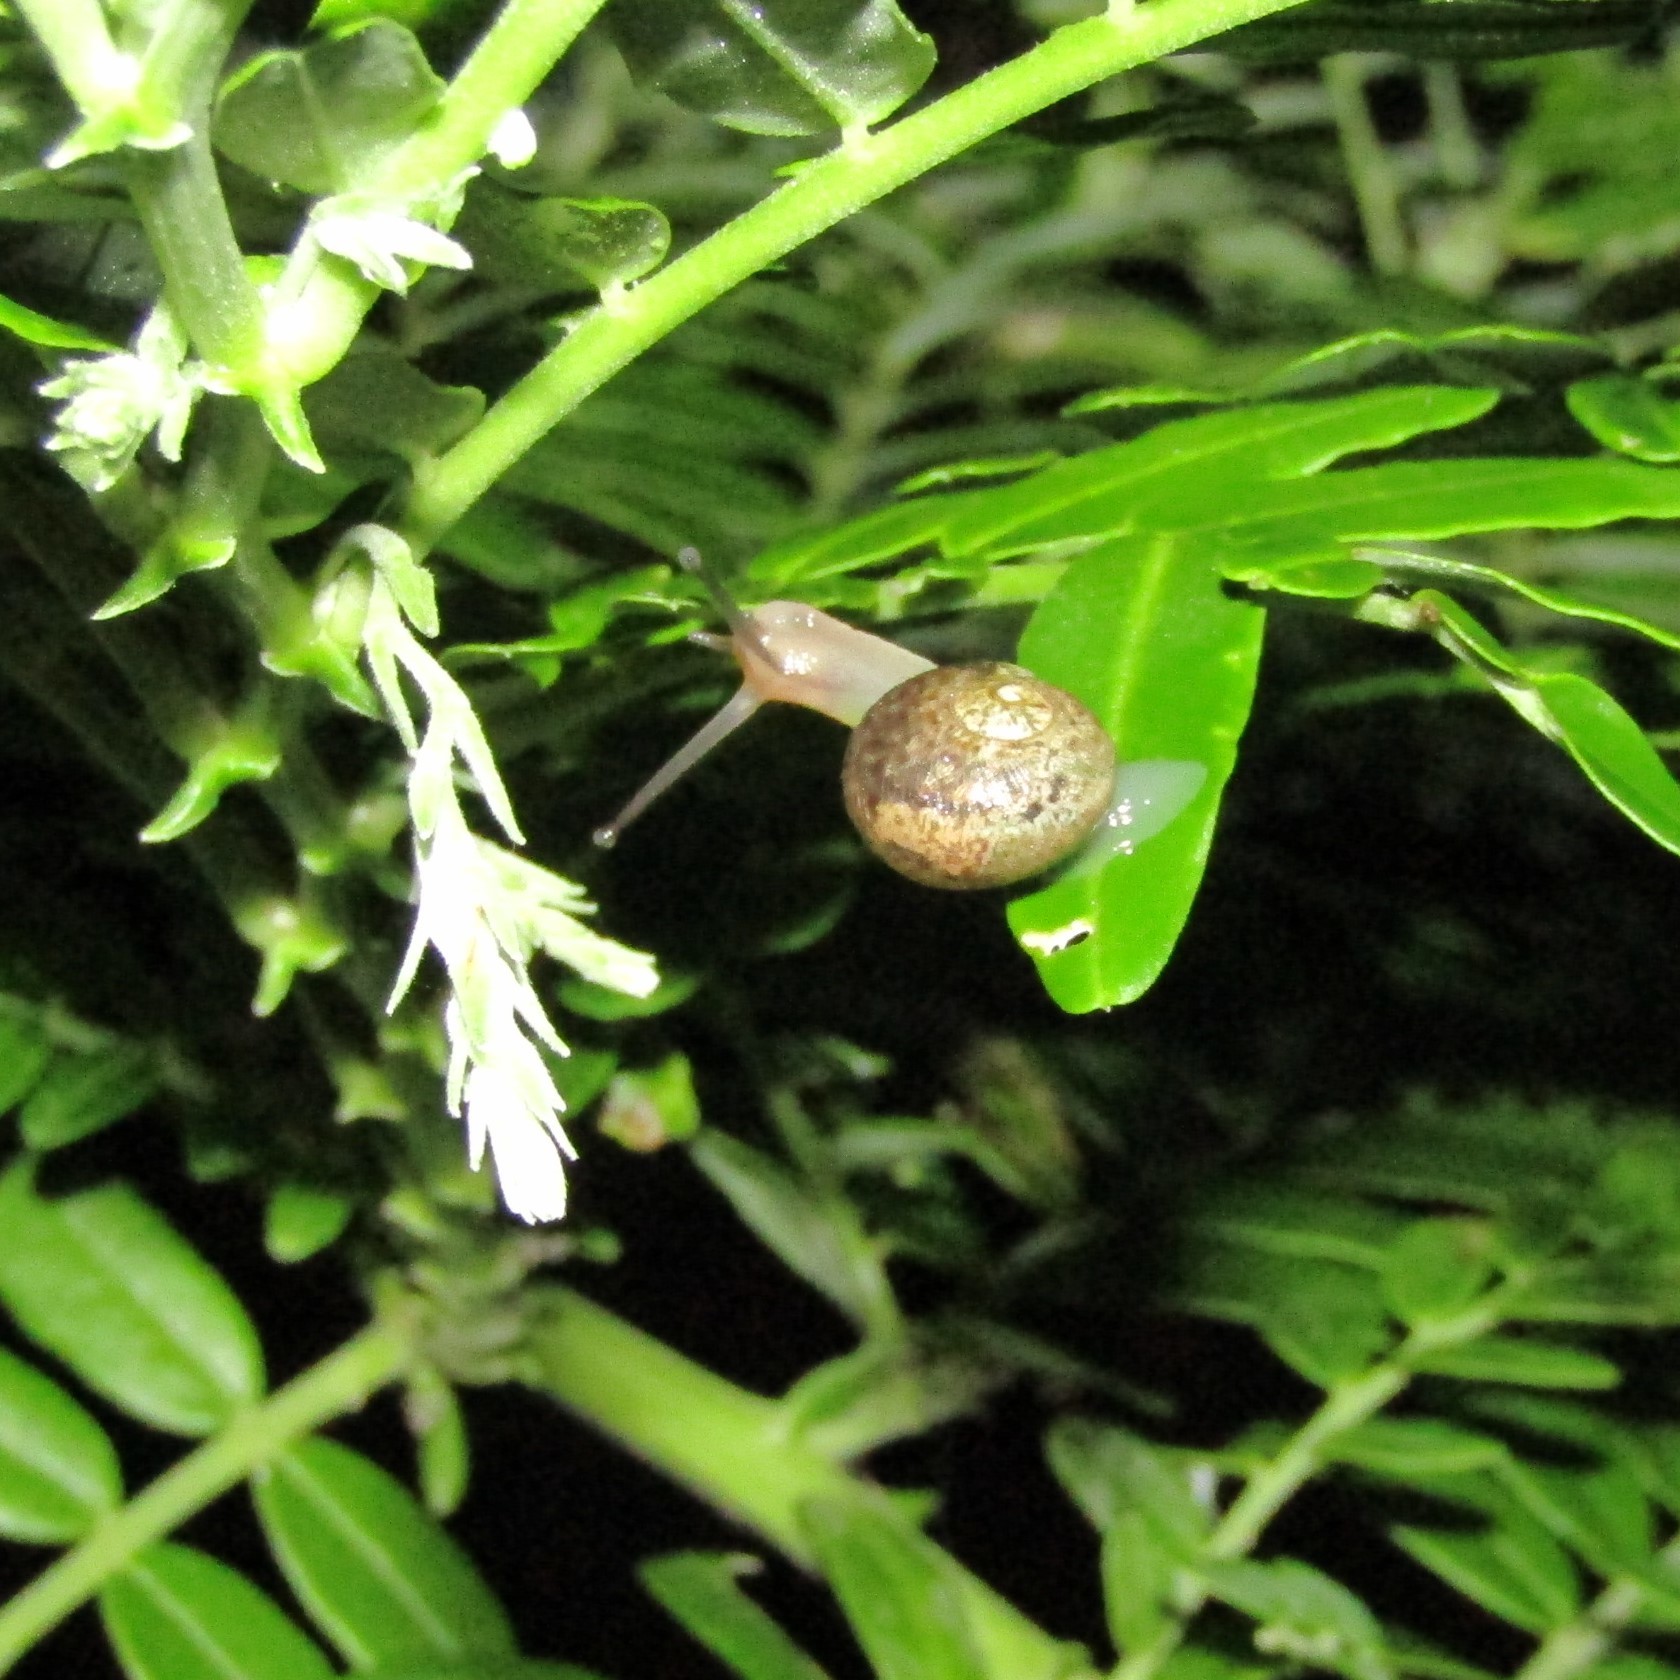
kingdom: Animalia
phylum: Mollusca
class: Gastropoda
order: Stylommatophora
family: Helicidae
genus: Cornu
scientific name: Cornu aspersum
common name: Brown garden snail
